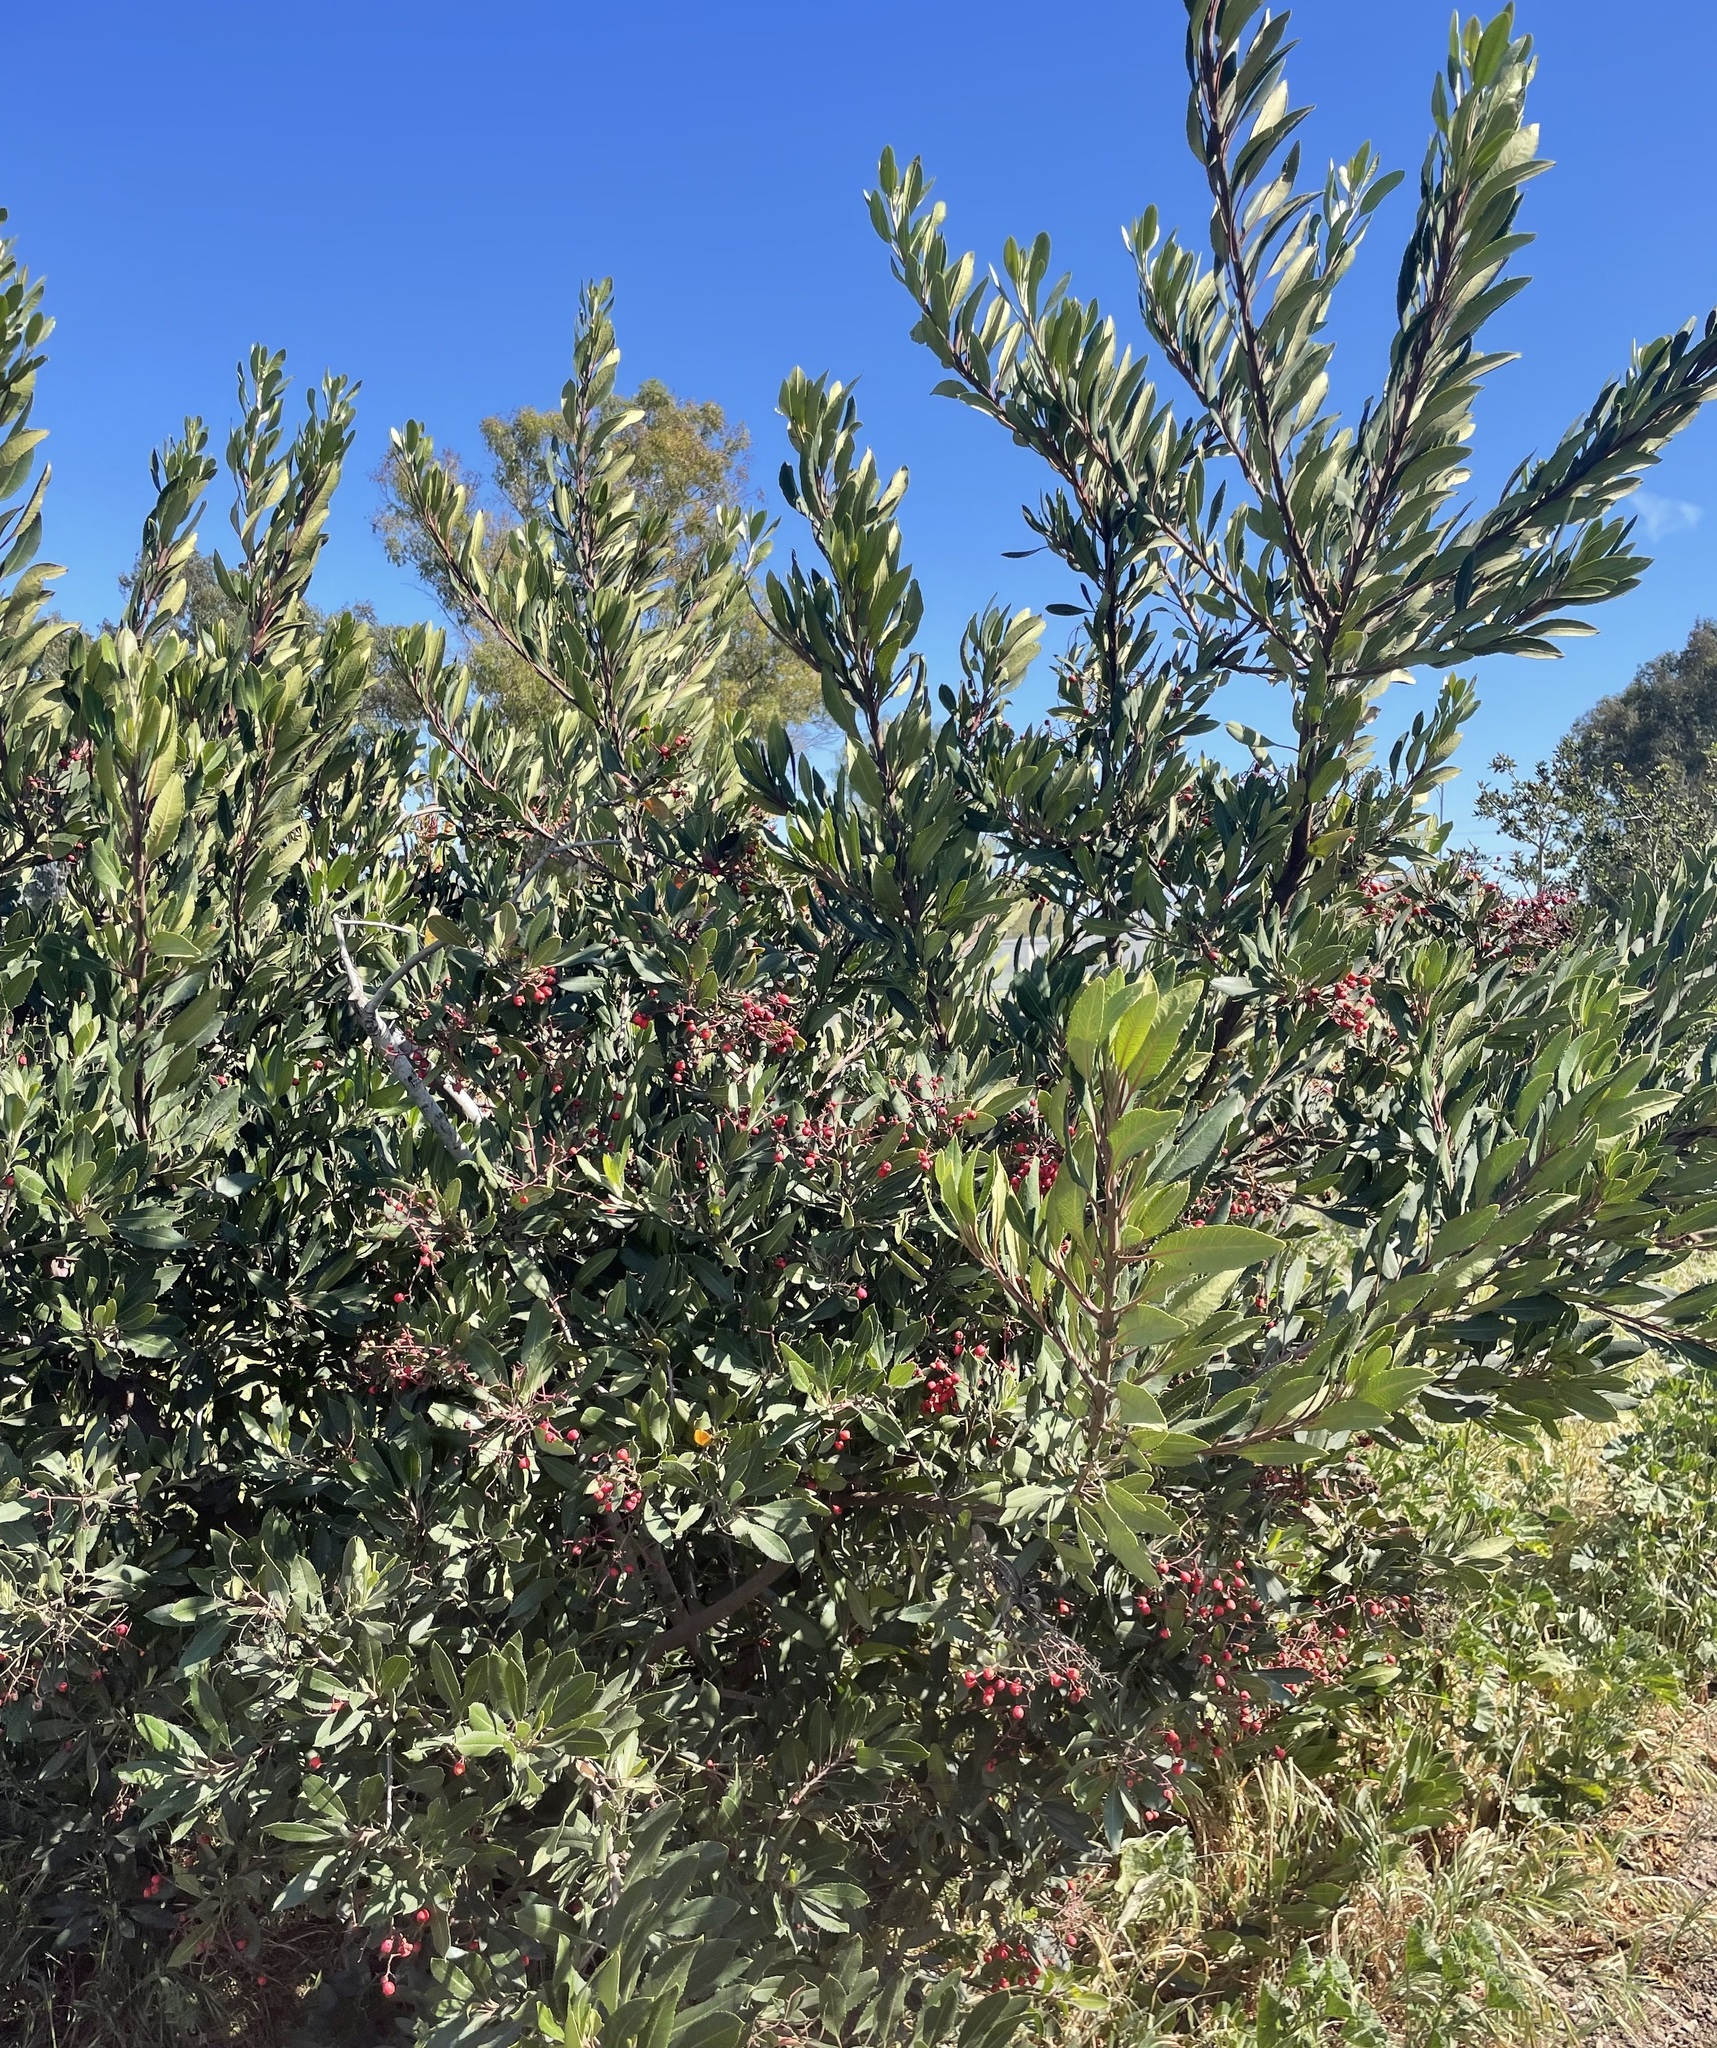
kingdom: Plantae
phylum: Tracheophyta
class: Magnoliopsida
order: Rosales
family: Rosaceae
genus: Heteromeles
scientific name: Heteromeles arbutifolia
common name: California-holly
